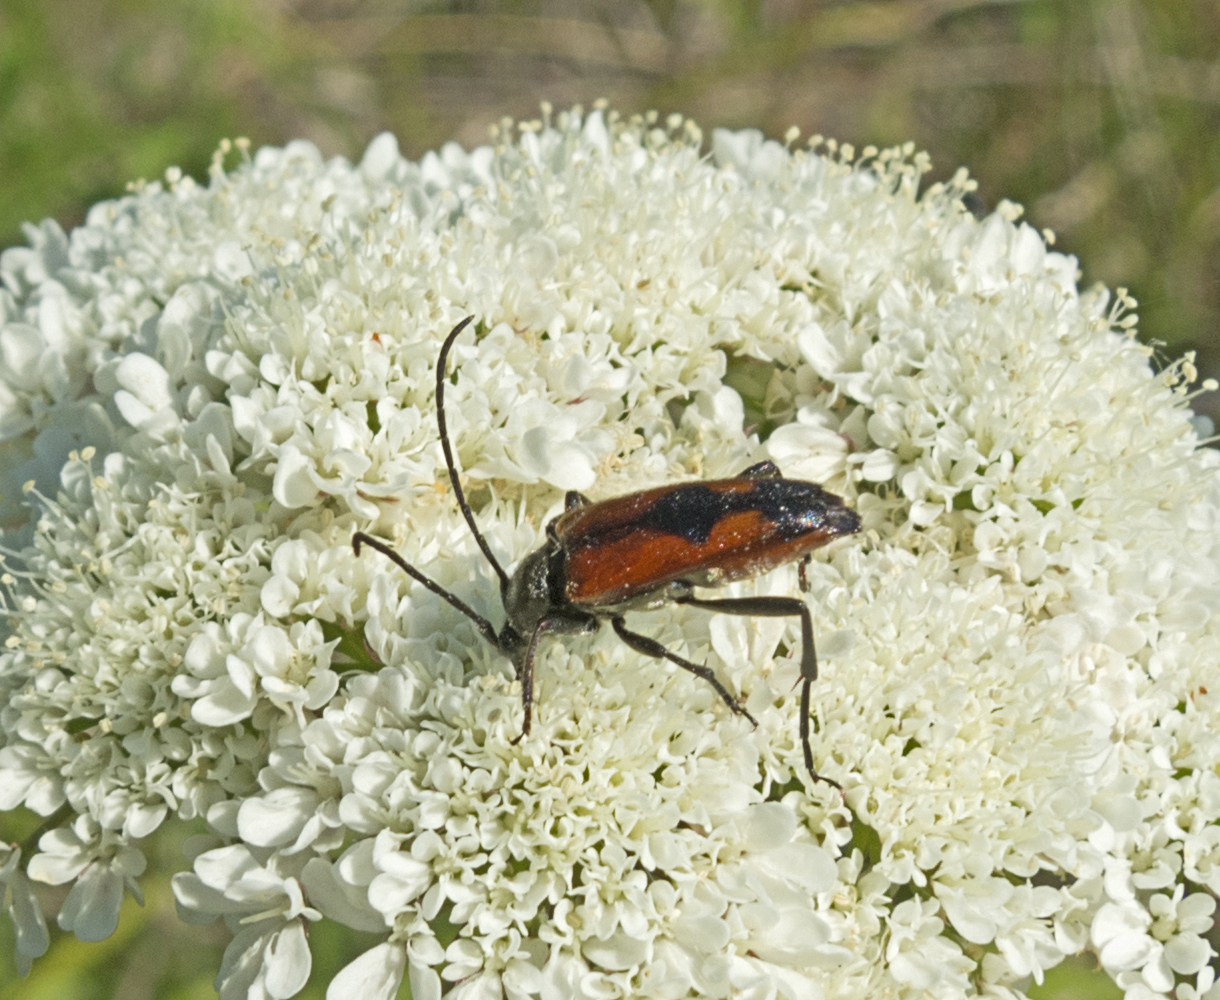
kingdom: Animalia
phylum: Arthropoda
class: Insecta
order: Coleoptera
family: Cerambycidae
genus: Stenurella
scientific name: Stenurella bifasciata
